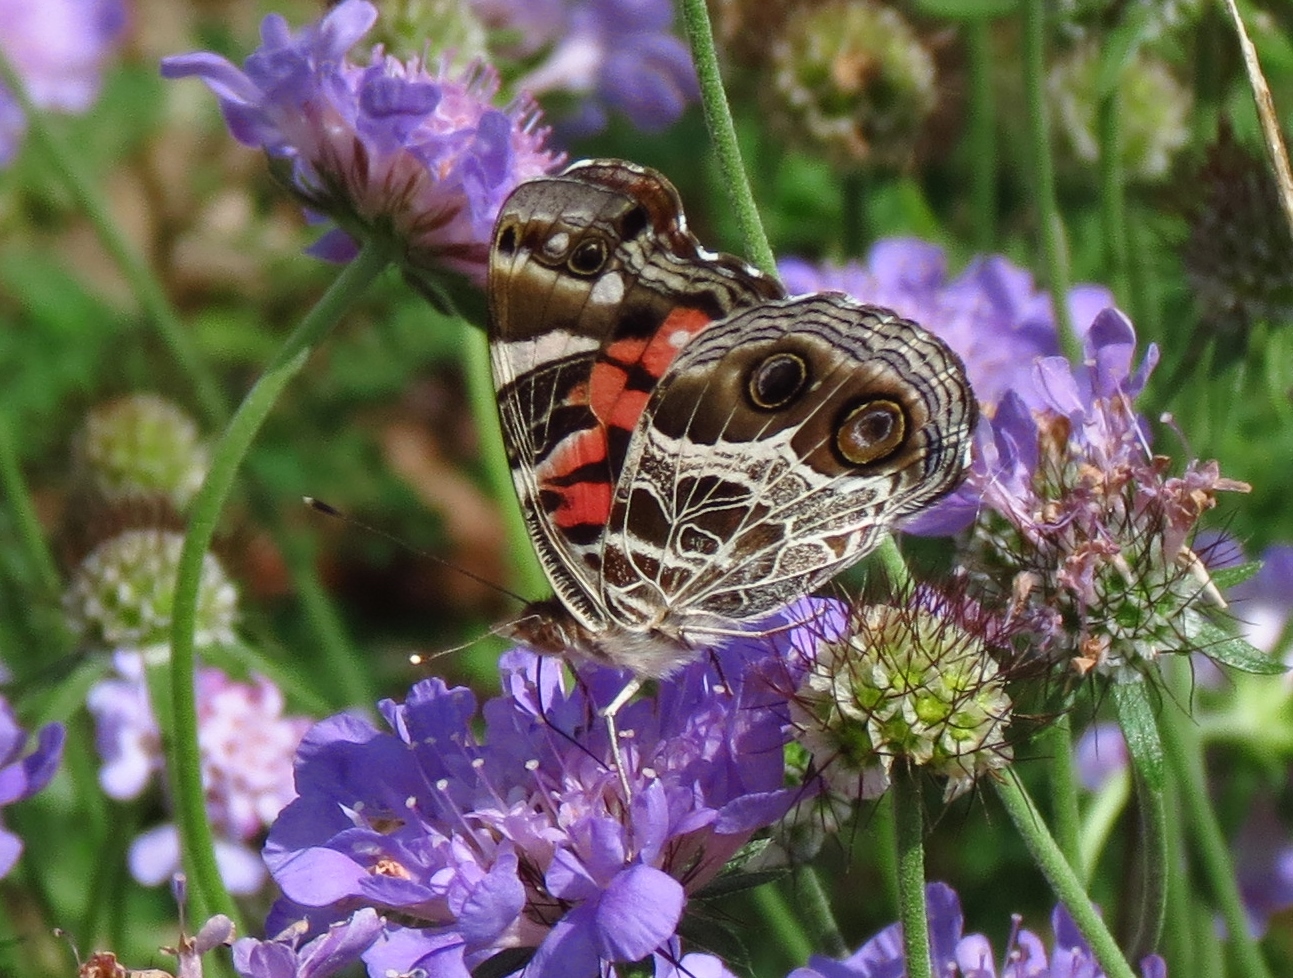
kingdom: Animalia
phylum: Arthropoda
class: Insecta
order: Lepidoptera
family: Nymphalidae
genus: Vanessa
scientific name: Vanessa virginiensis
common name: American lady
